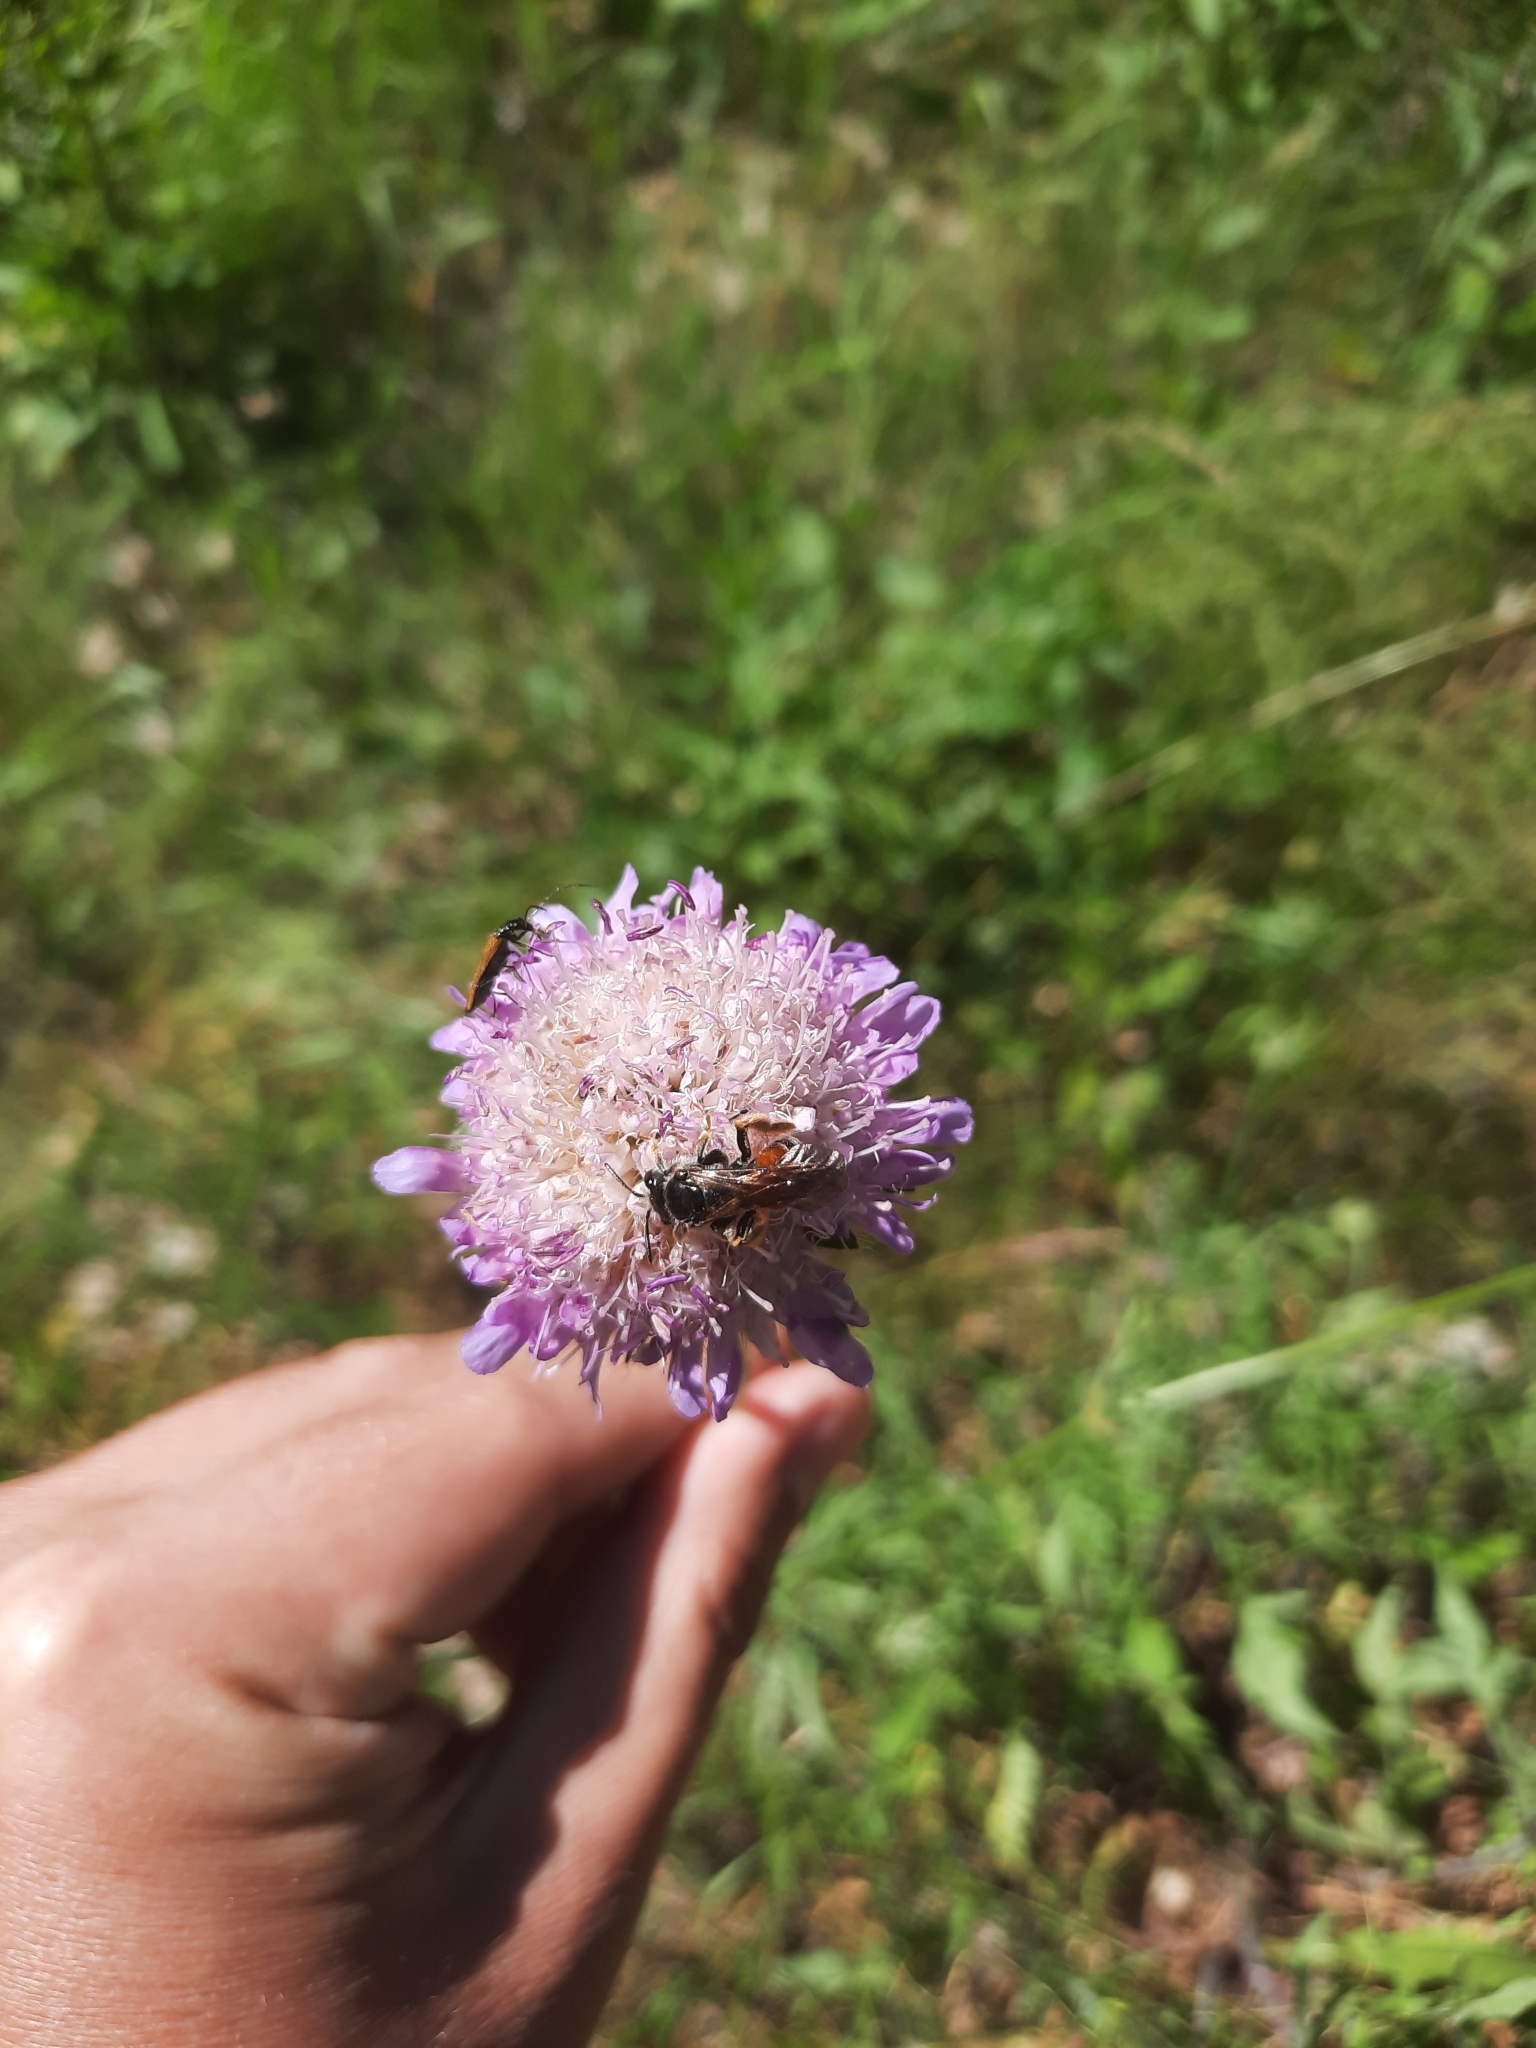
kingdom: Animalia
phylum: Arthropoda
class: Insecta
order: Hymenoptera
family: Andrenidae
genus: Andrena
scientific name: Andrena hattorfiana
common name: Large scabious mining bee
